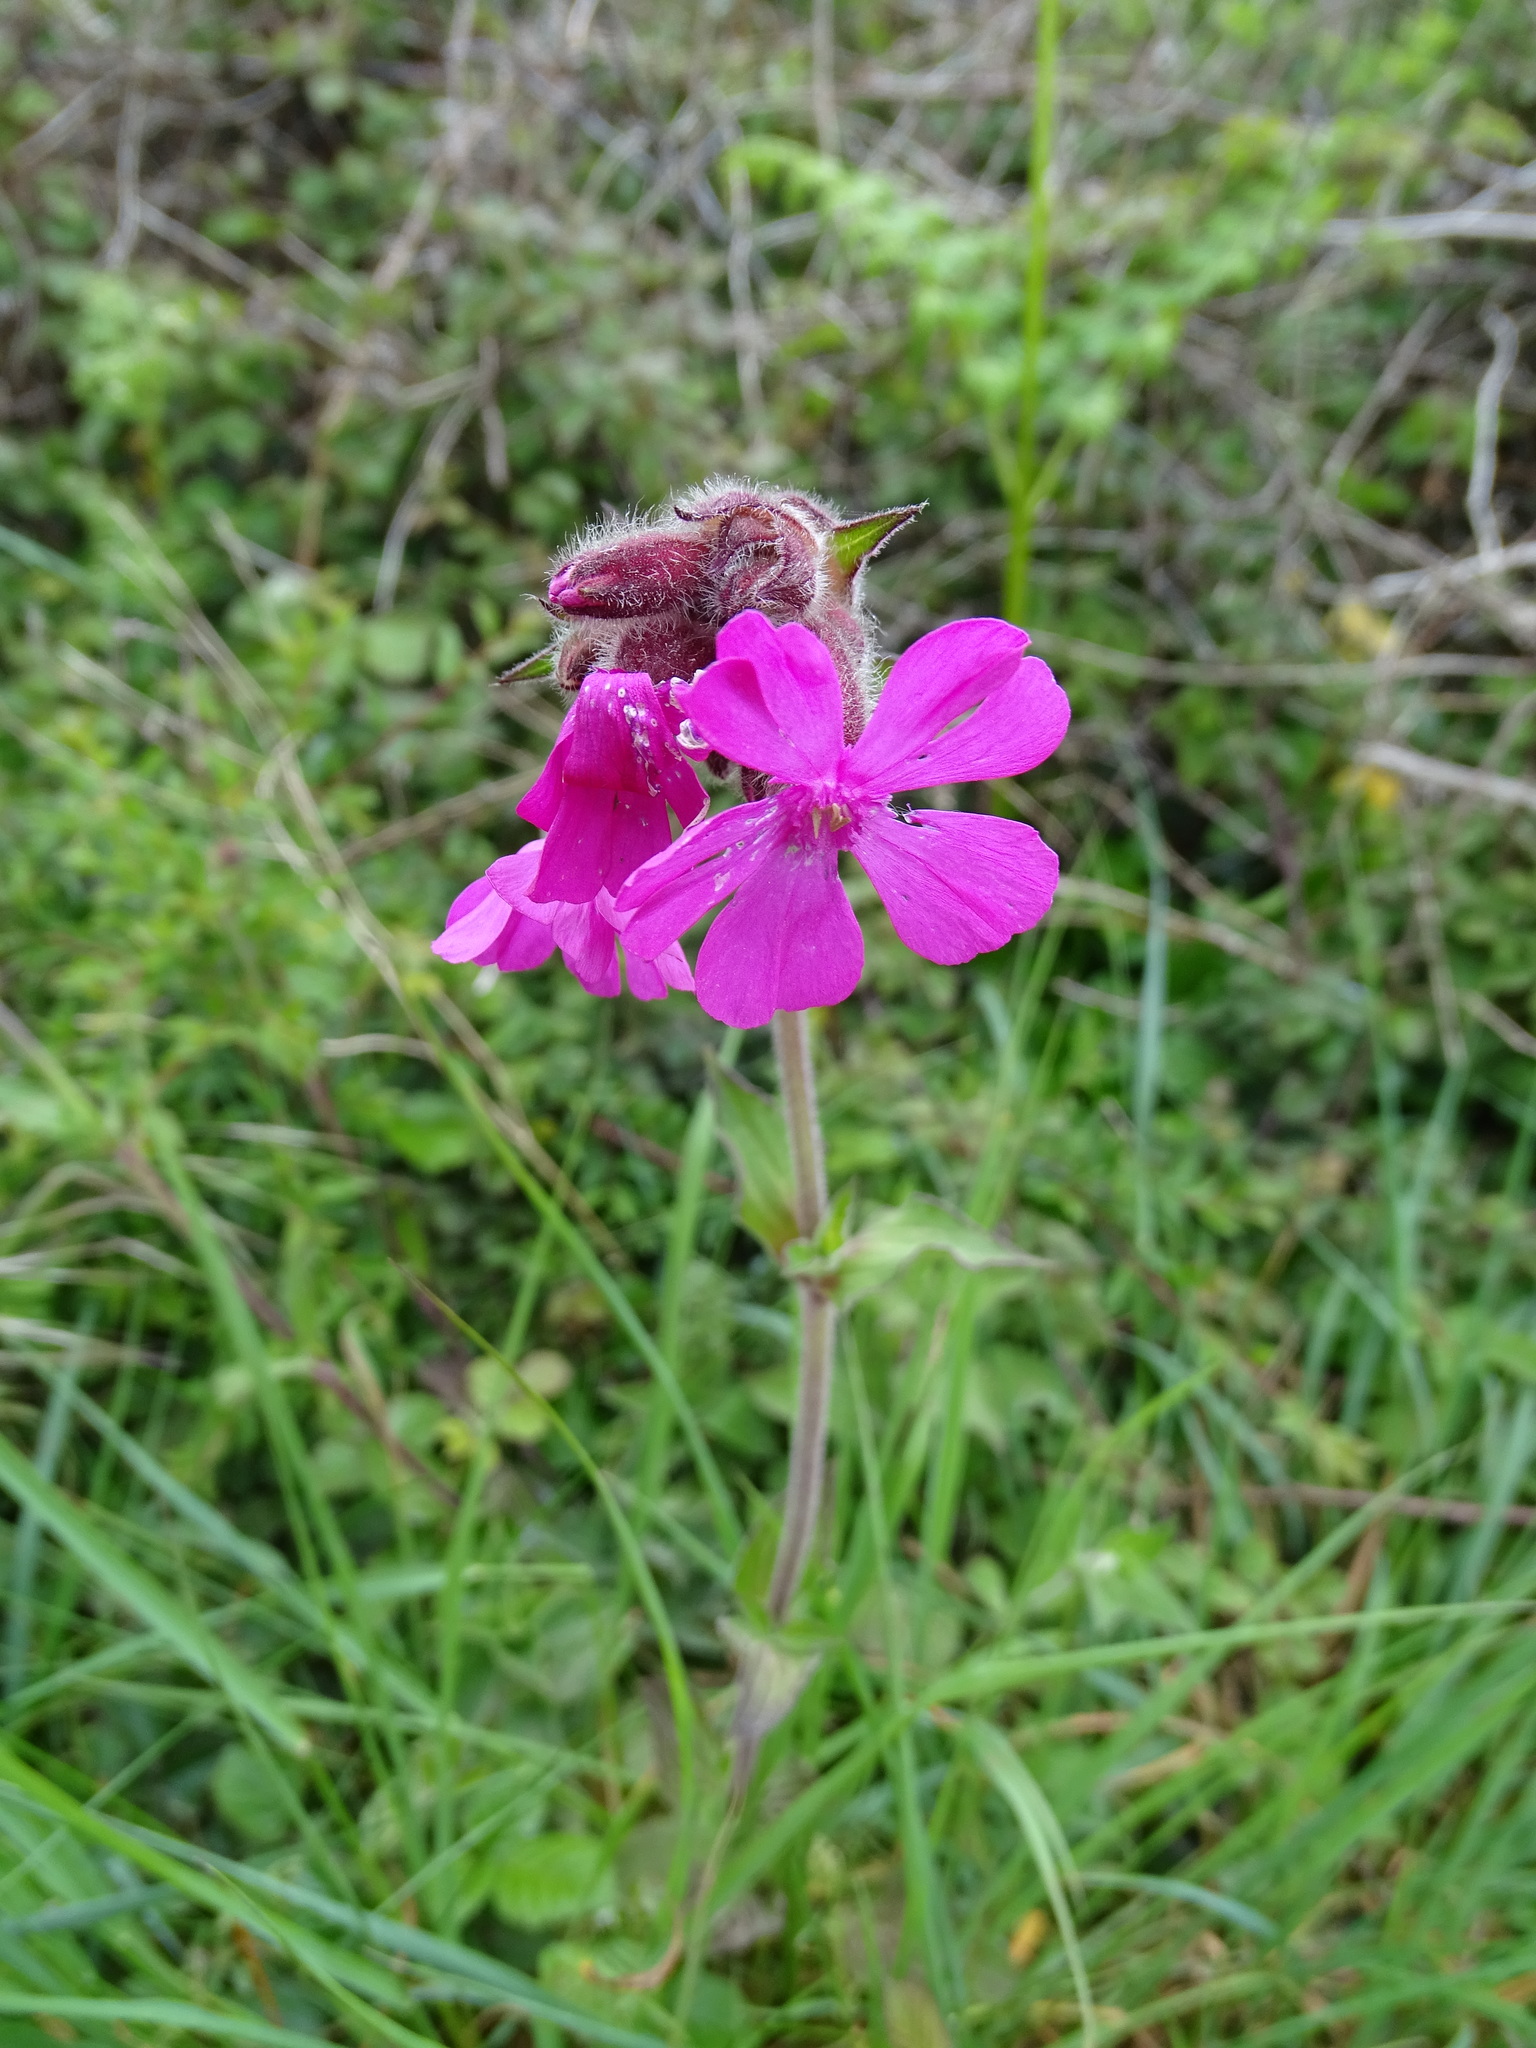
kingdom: Plantae
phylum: Tracheophyta
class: Magnoliopsida
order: Caryophyllales
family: Caryophyllaceae
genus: Silene
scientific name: Silene dioica
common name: Red campion
